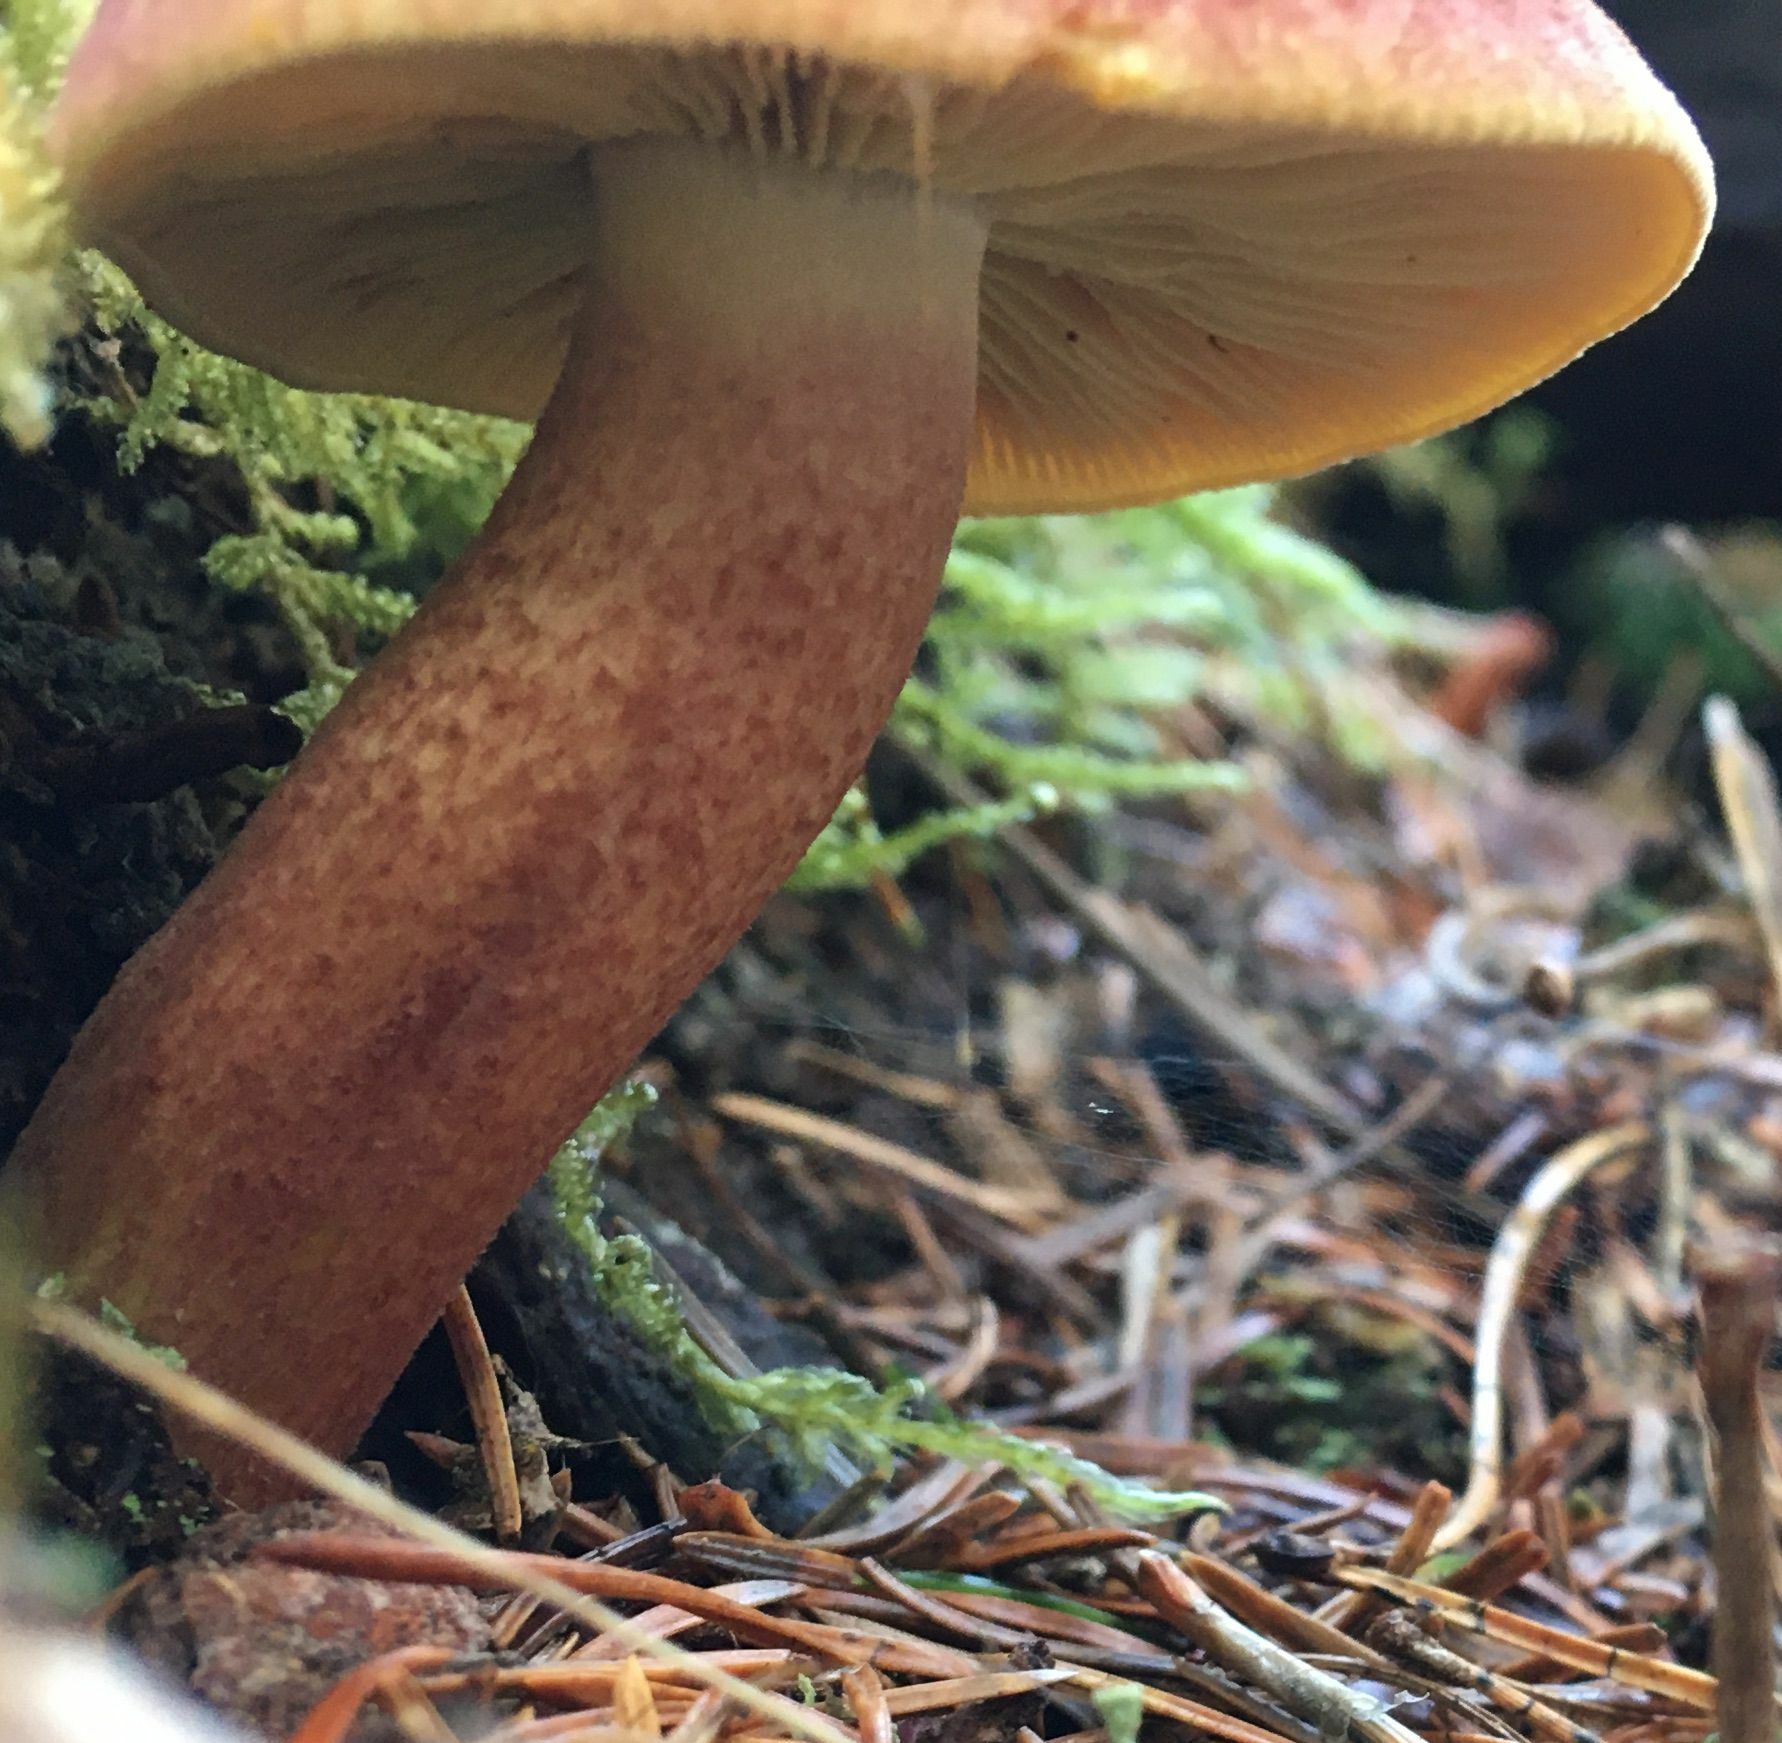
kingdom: Fungi
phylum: Basidiomycota
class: Agaricomycetes
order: Agaricales
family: Tricholomataceae
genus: Tricholomopsis
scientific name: Tricholomopsis rutilans
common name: Plums and custard
